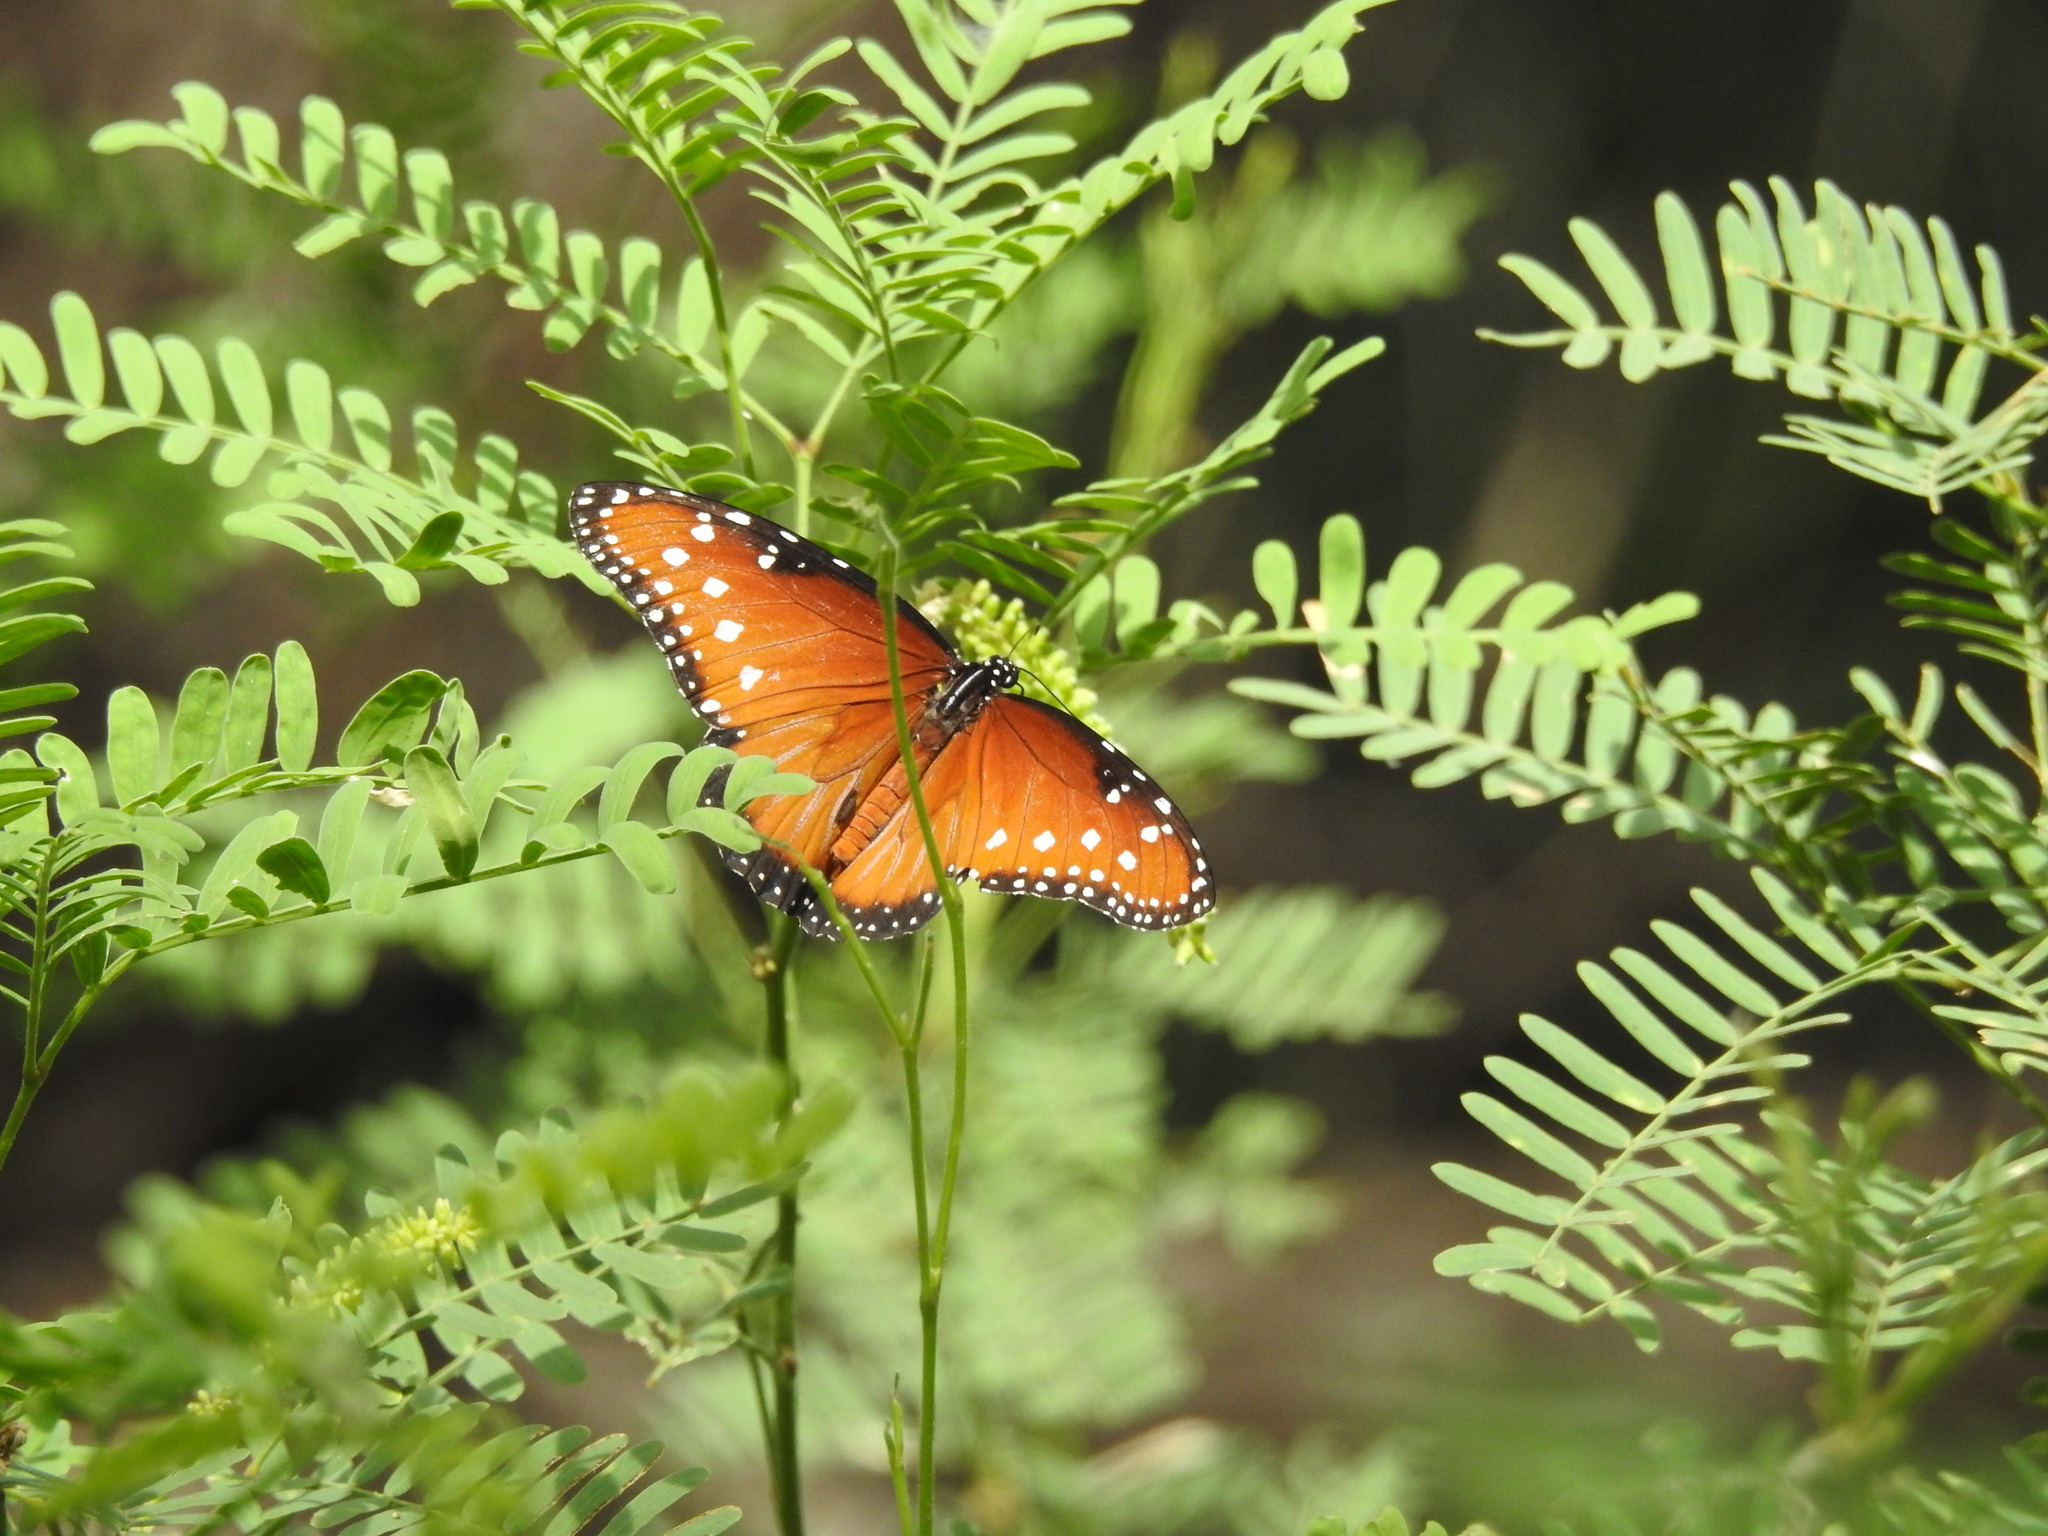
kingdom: Animalia
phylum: Arthropoda
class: Insecta
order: Lepidoptera
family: Nymphalidae
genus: Danaus
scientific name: Danaus gilippus
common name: Queen
